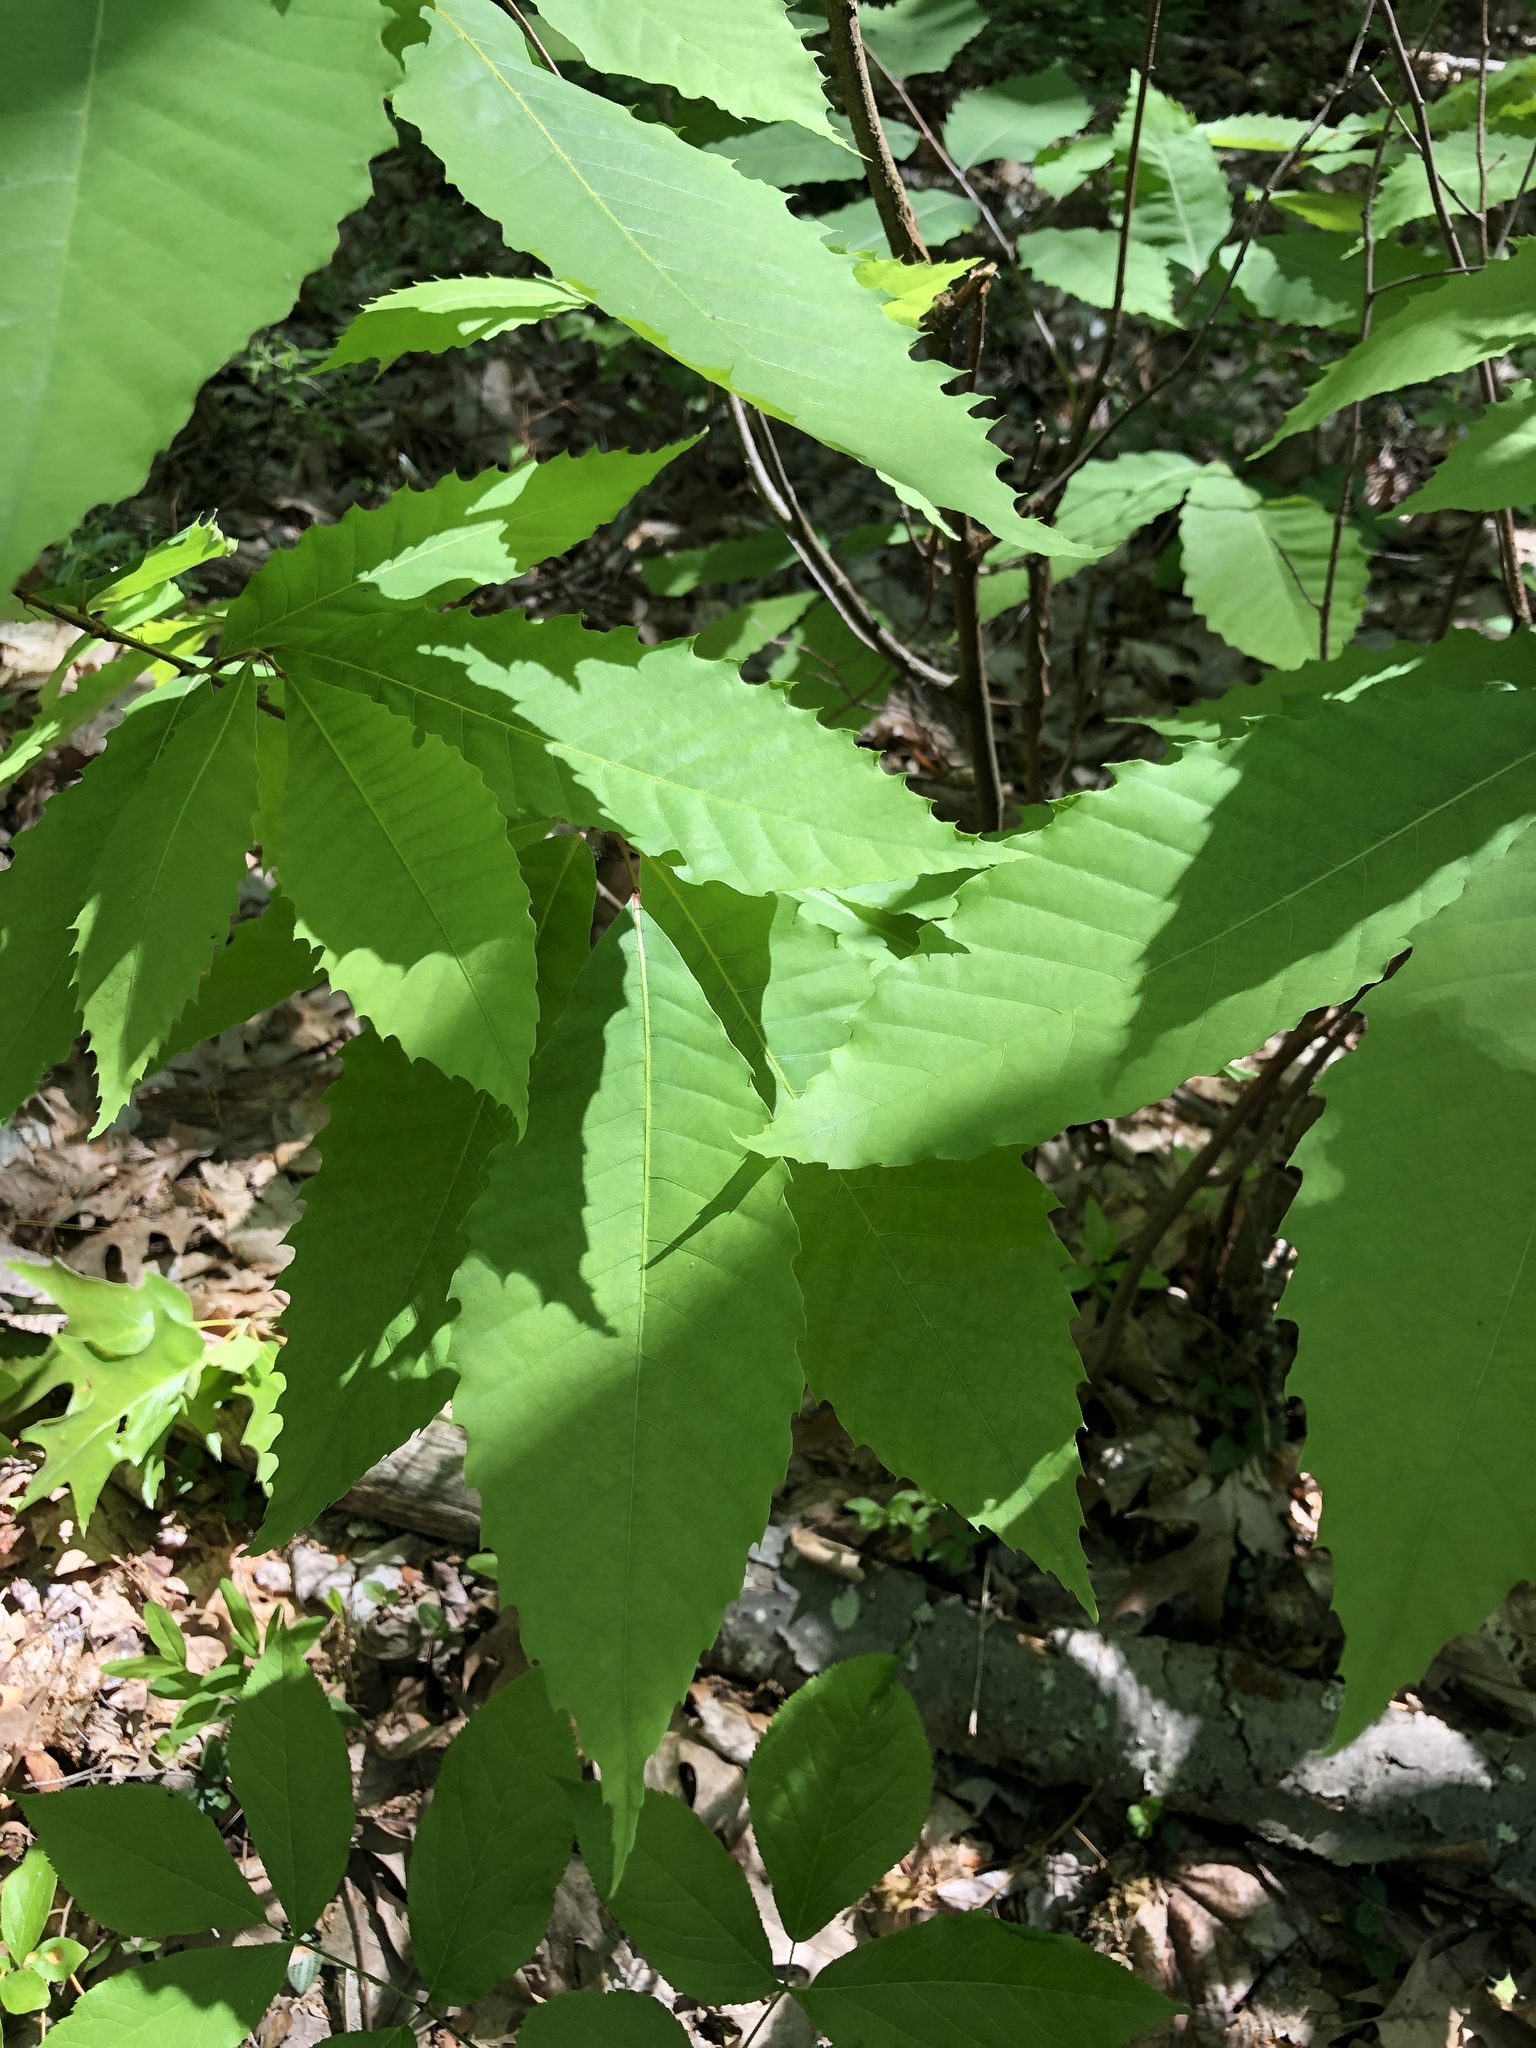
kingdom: Plantae
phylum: Tracheophyta
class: Magnoliopsida
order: Fagales
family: Fagaceae
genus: Castanea
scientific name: Castanea dentata
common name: American chestnut
